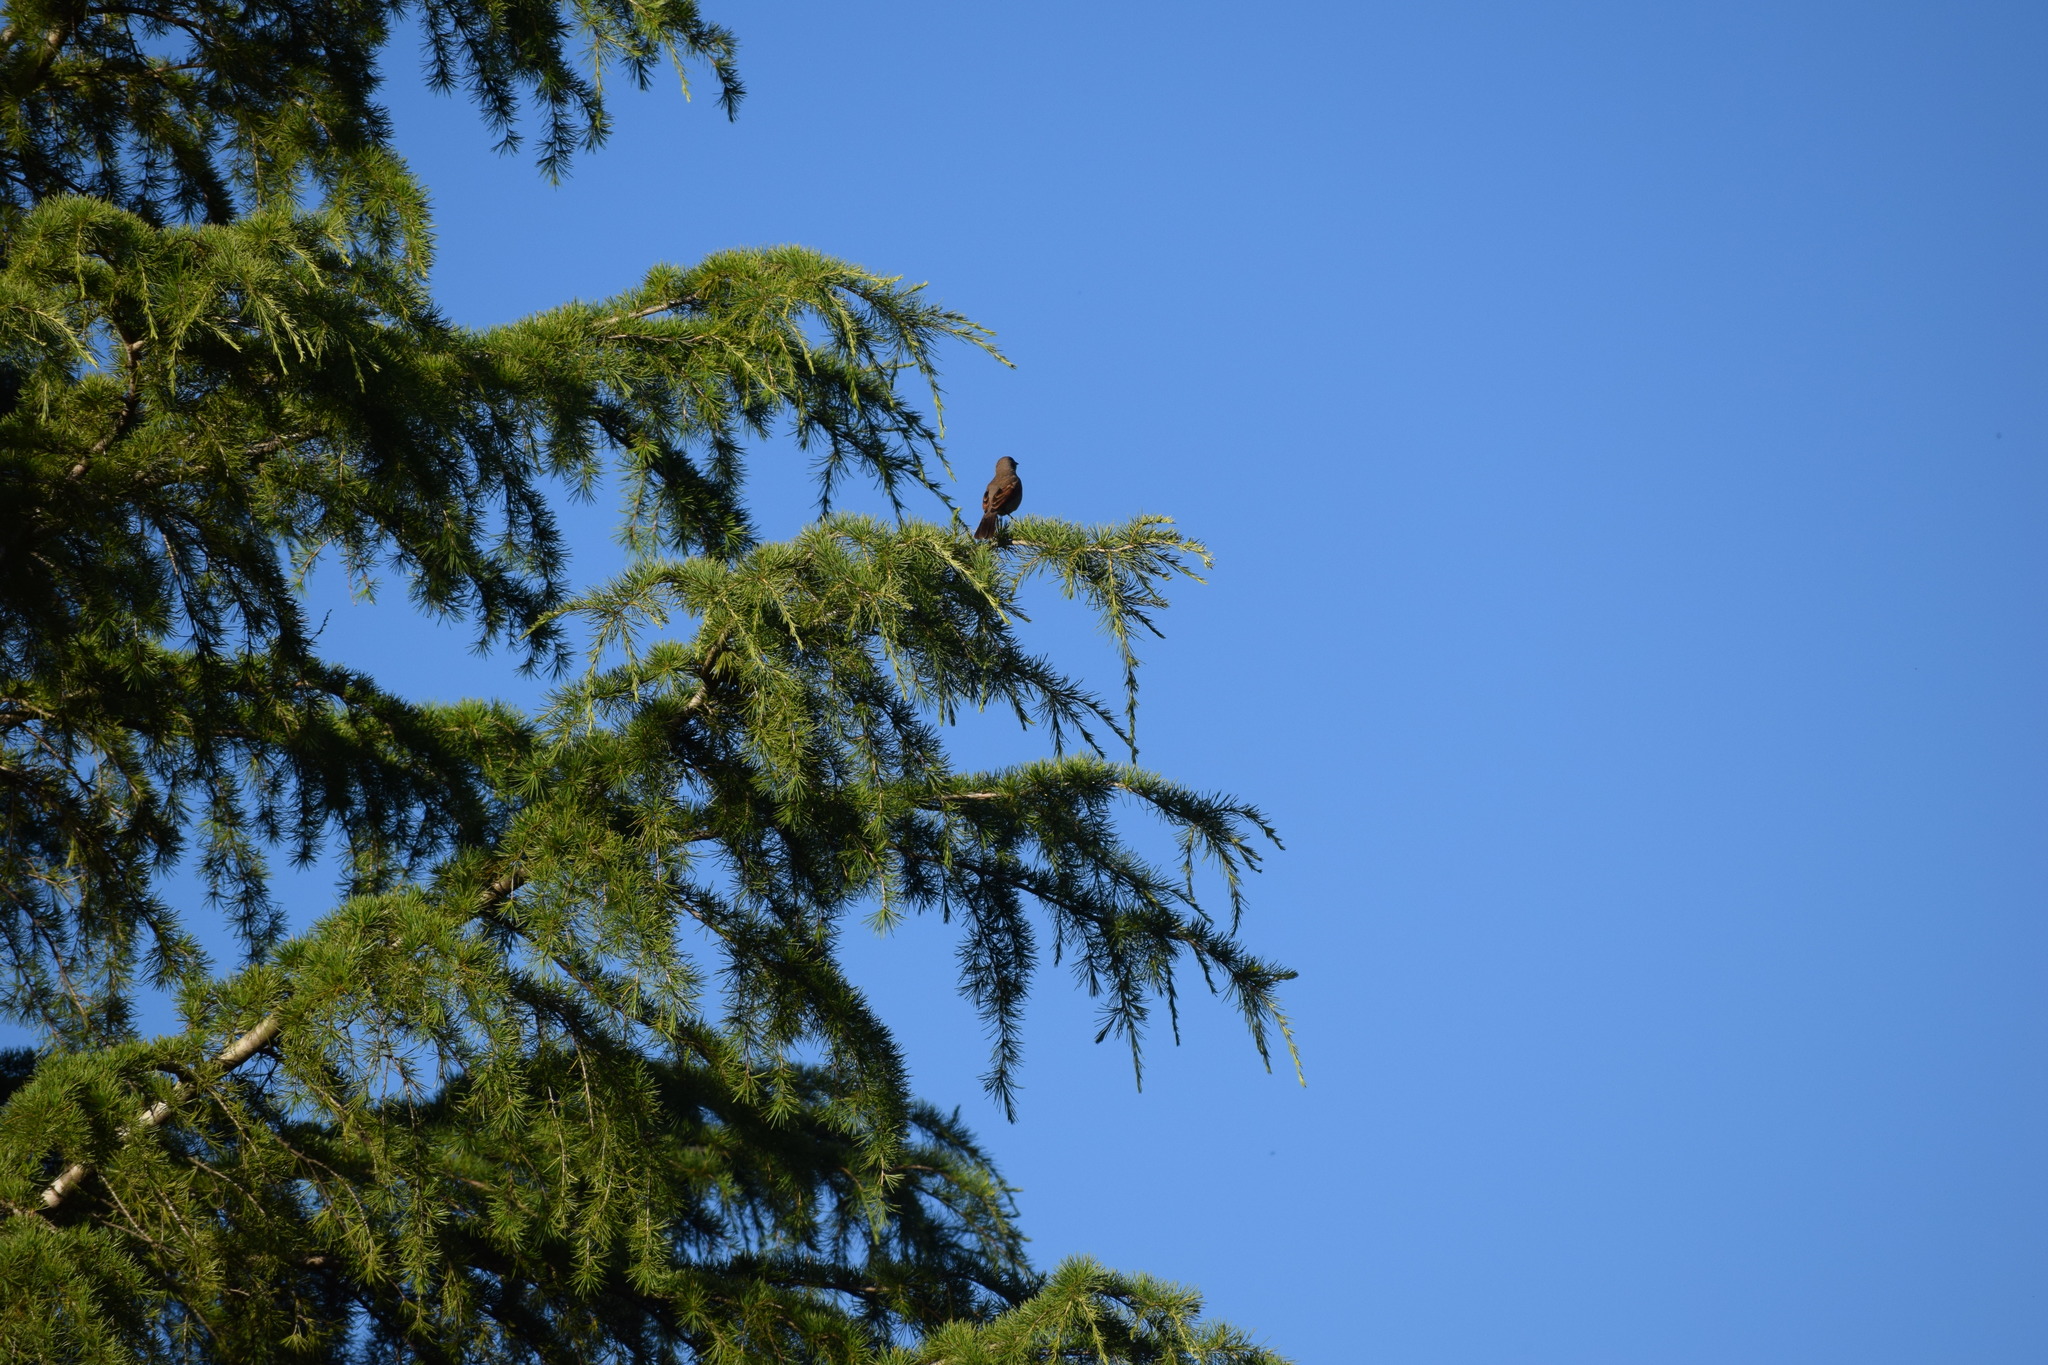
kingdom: Animalia
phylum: Chordata
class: Aves
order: Passeriformes
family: Icteridae
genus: Agelaioides
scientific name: Agelaioides badius
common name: Baywing
